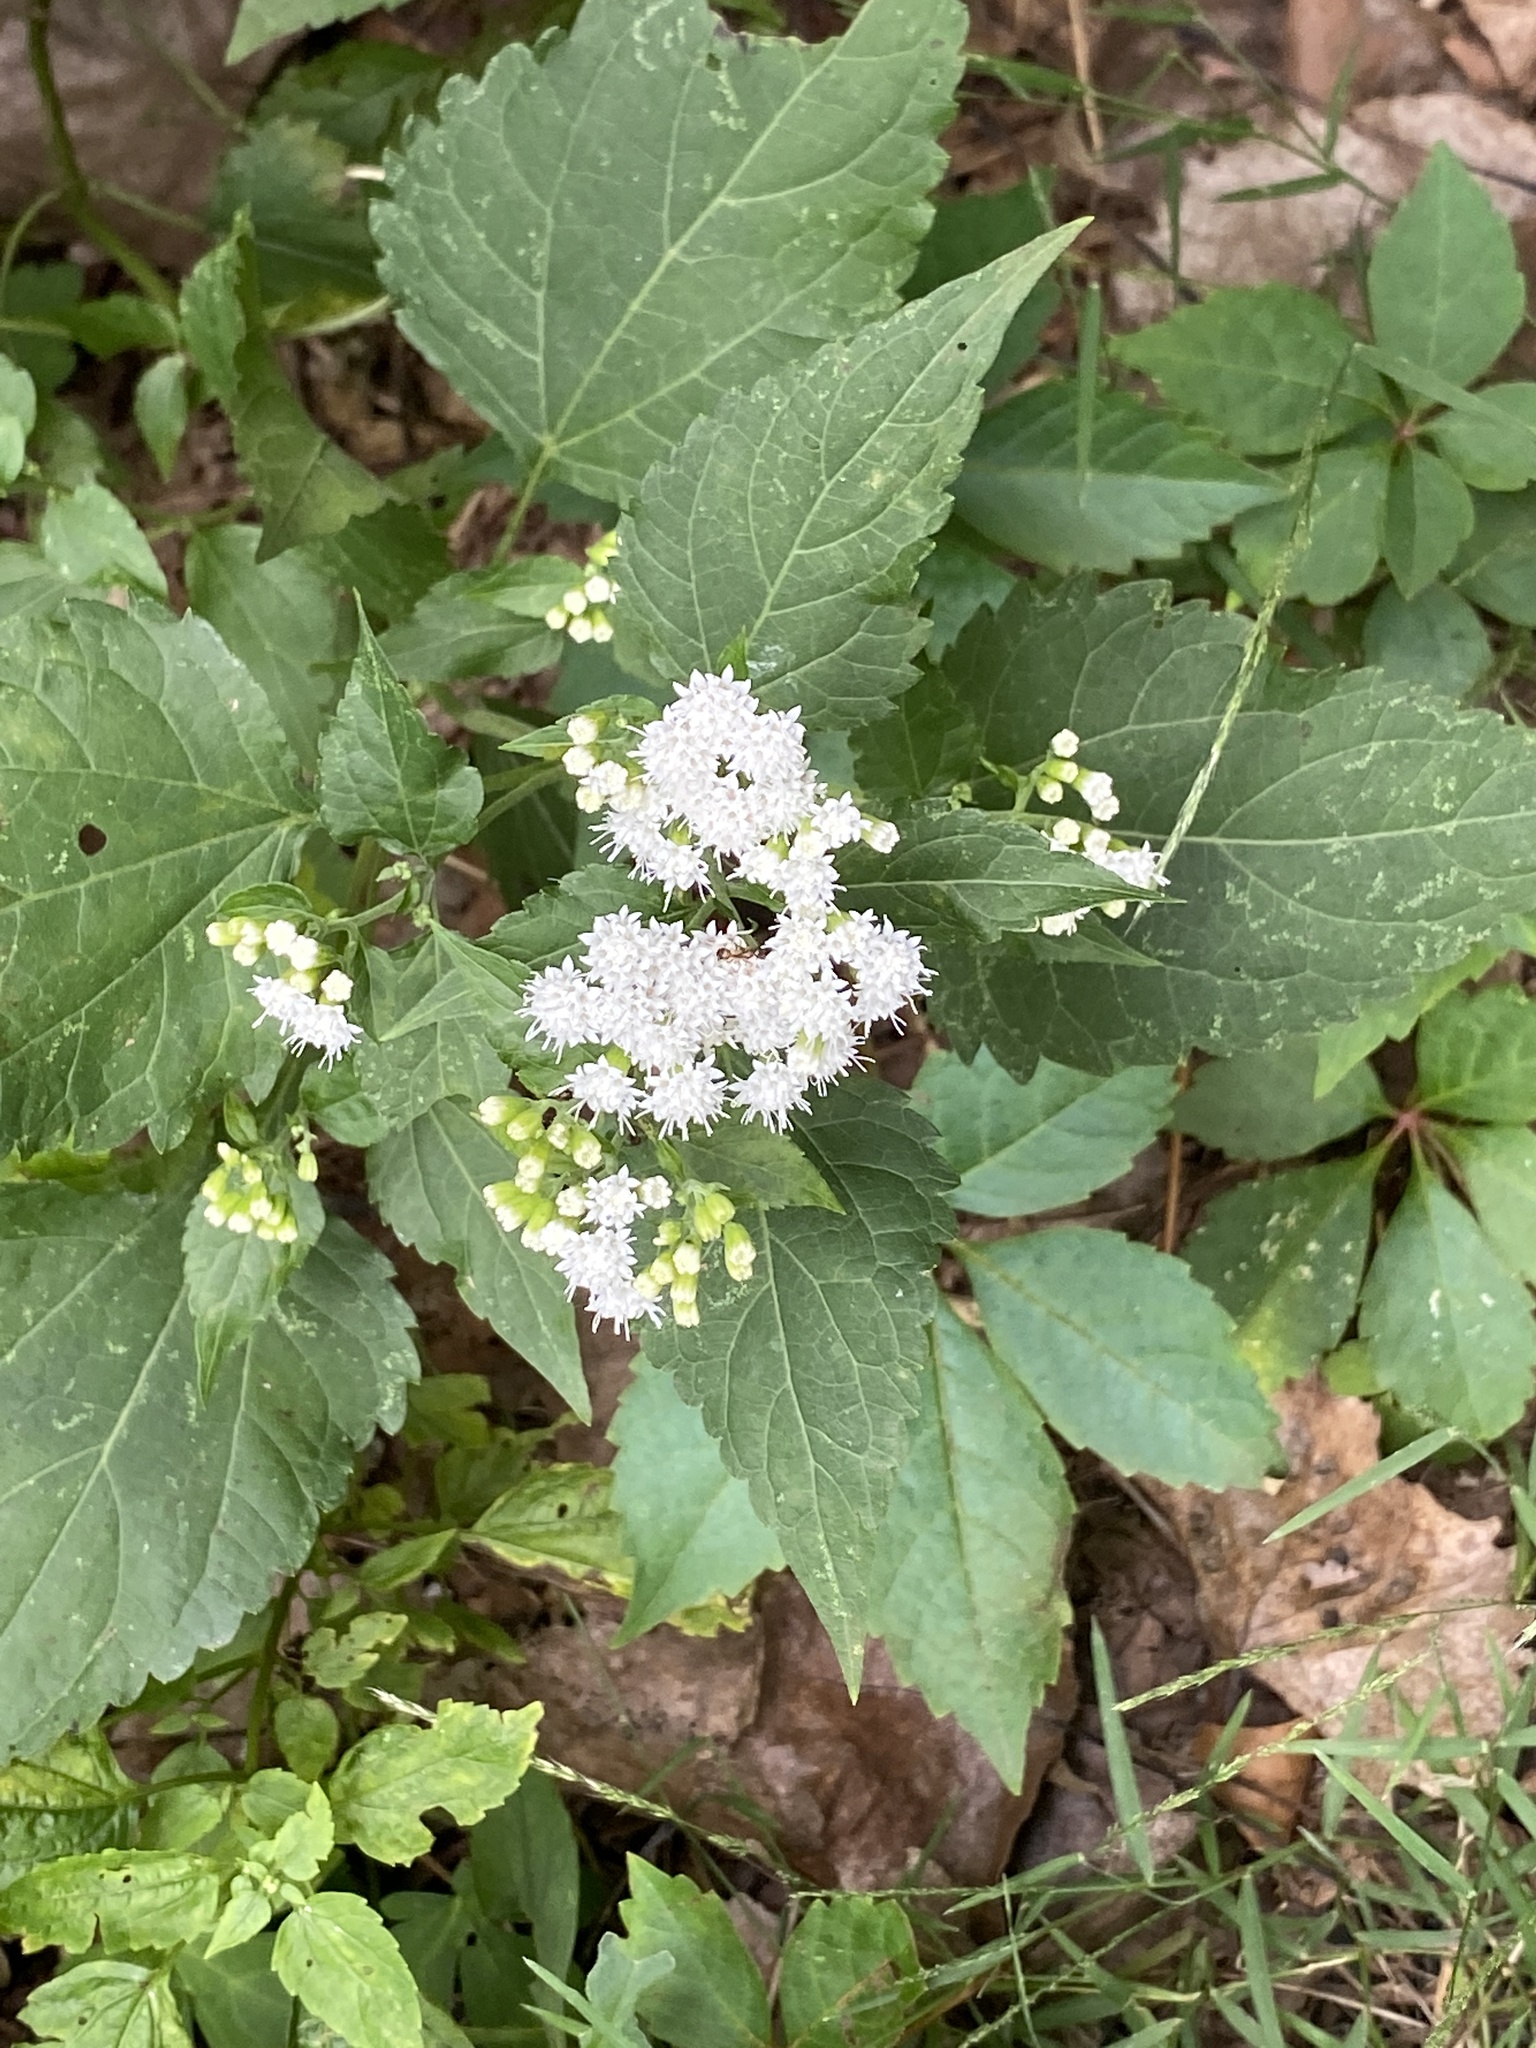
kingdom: Plantae
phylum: Tracheophyta
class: Magnoliopsida
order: Asterales
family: Asteraceae
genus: Ageratina
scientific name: Ageratina altissima
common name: White snakeroot
